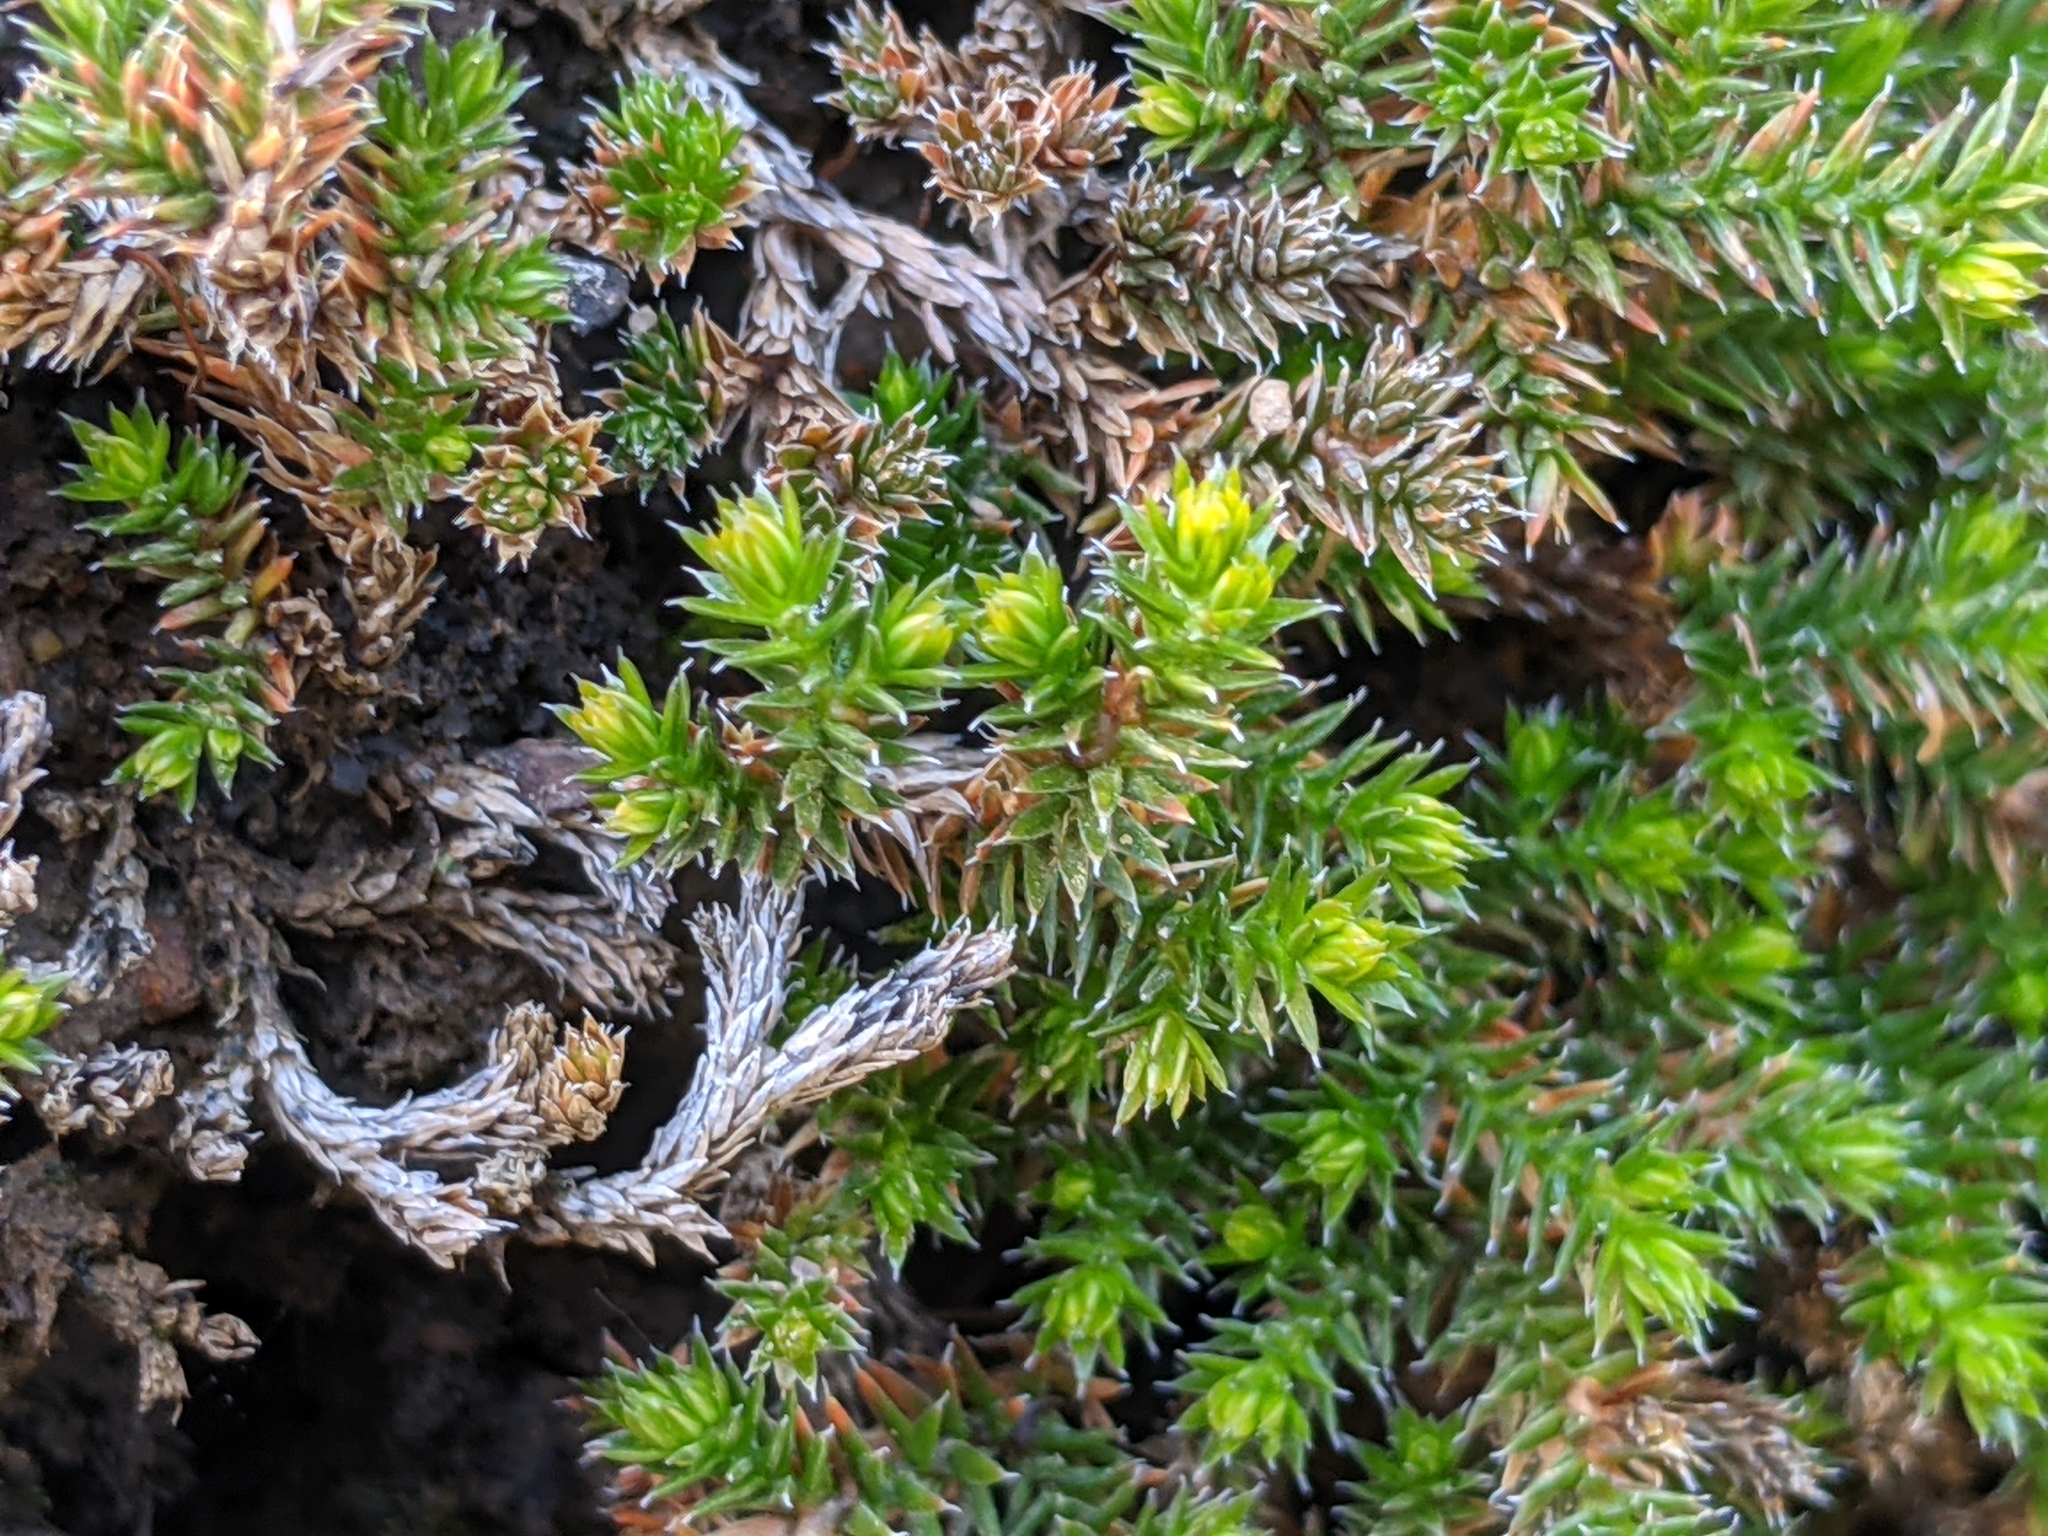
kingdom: Plantae
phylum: Tracheophyta
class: Lycopodiopsida
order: Selaginellales
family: Selaginellaceae
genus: Selaginella
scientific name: Selaginella wallacei
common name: Wallace's selaginella
